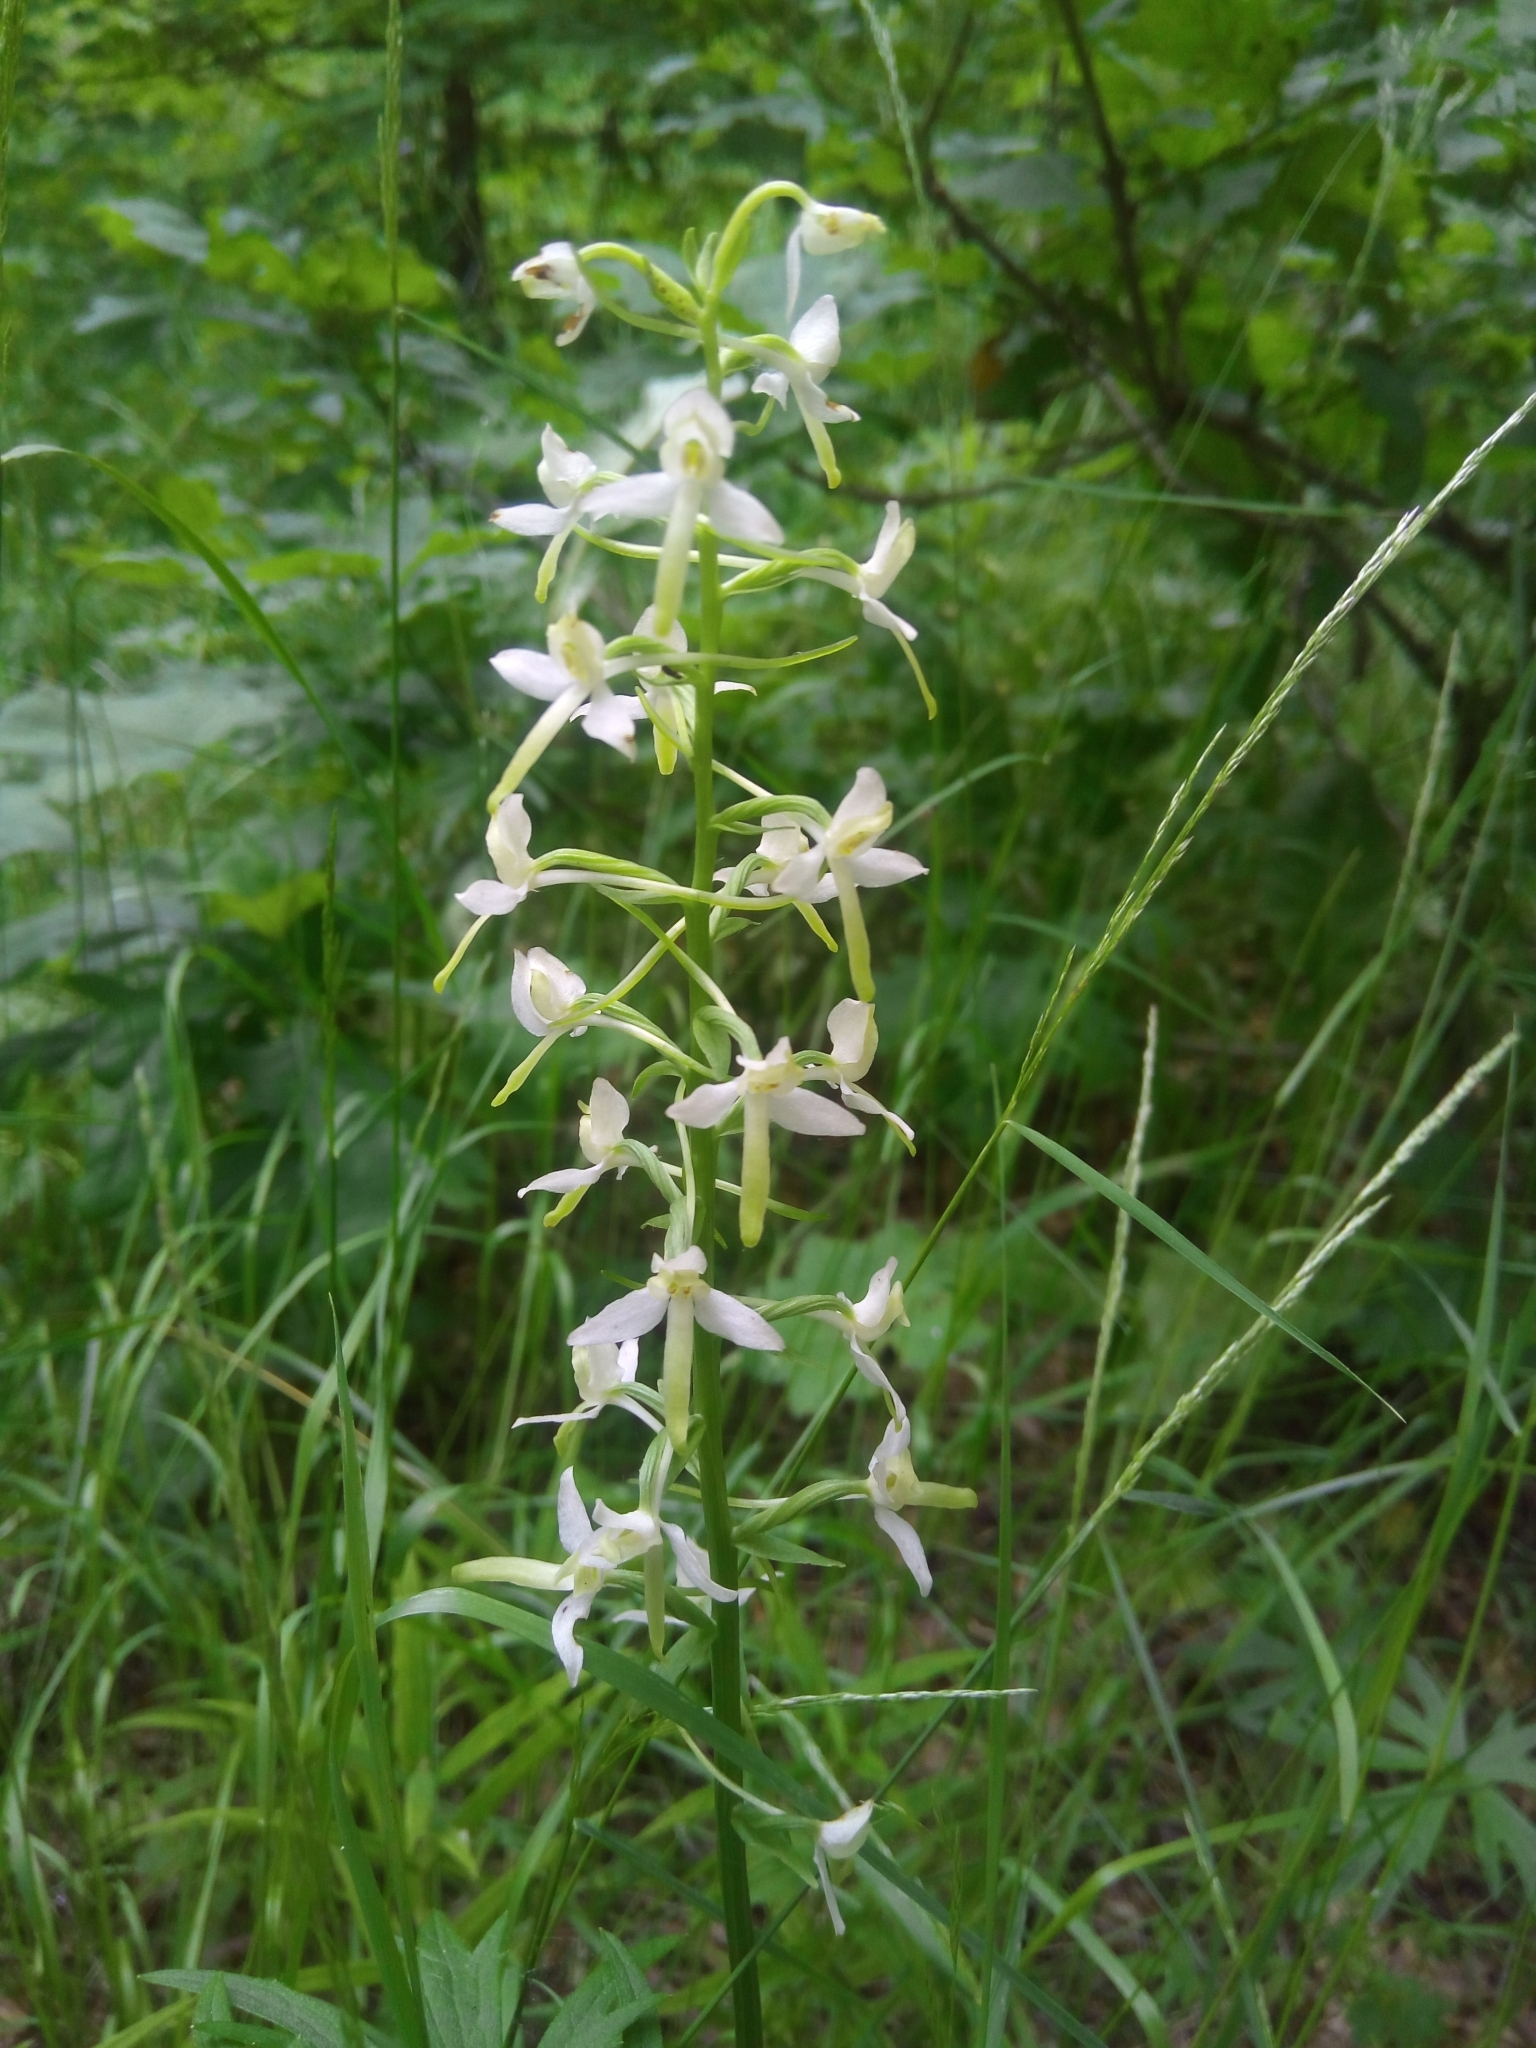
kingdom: Plantae
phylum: Tracheophyta
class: Liliopsida
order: Asparagales
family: Orchidaceae
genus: Platanthera
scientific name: Platanthera bifolia
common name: Lesser butterfly-orchid
